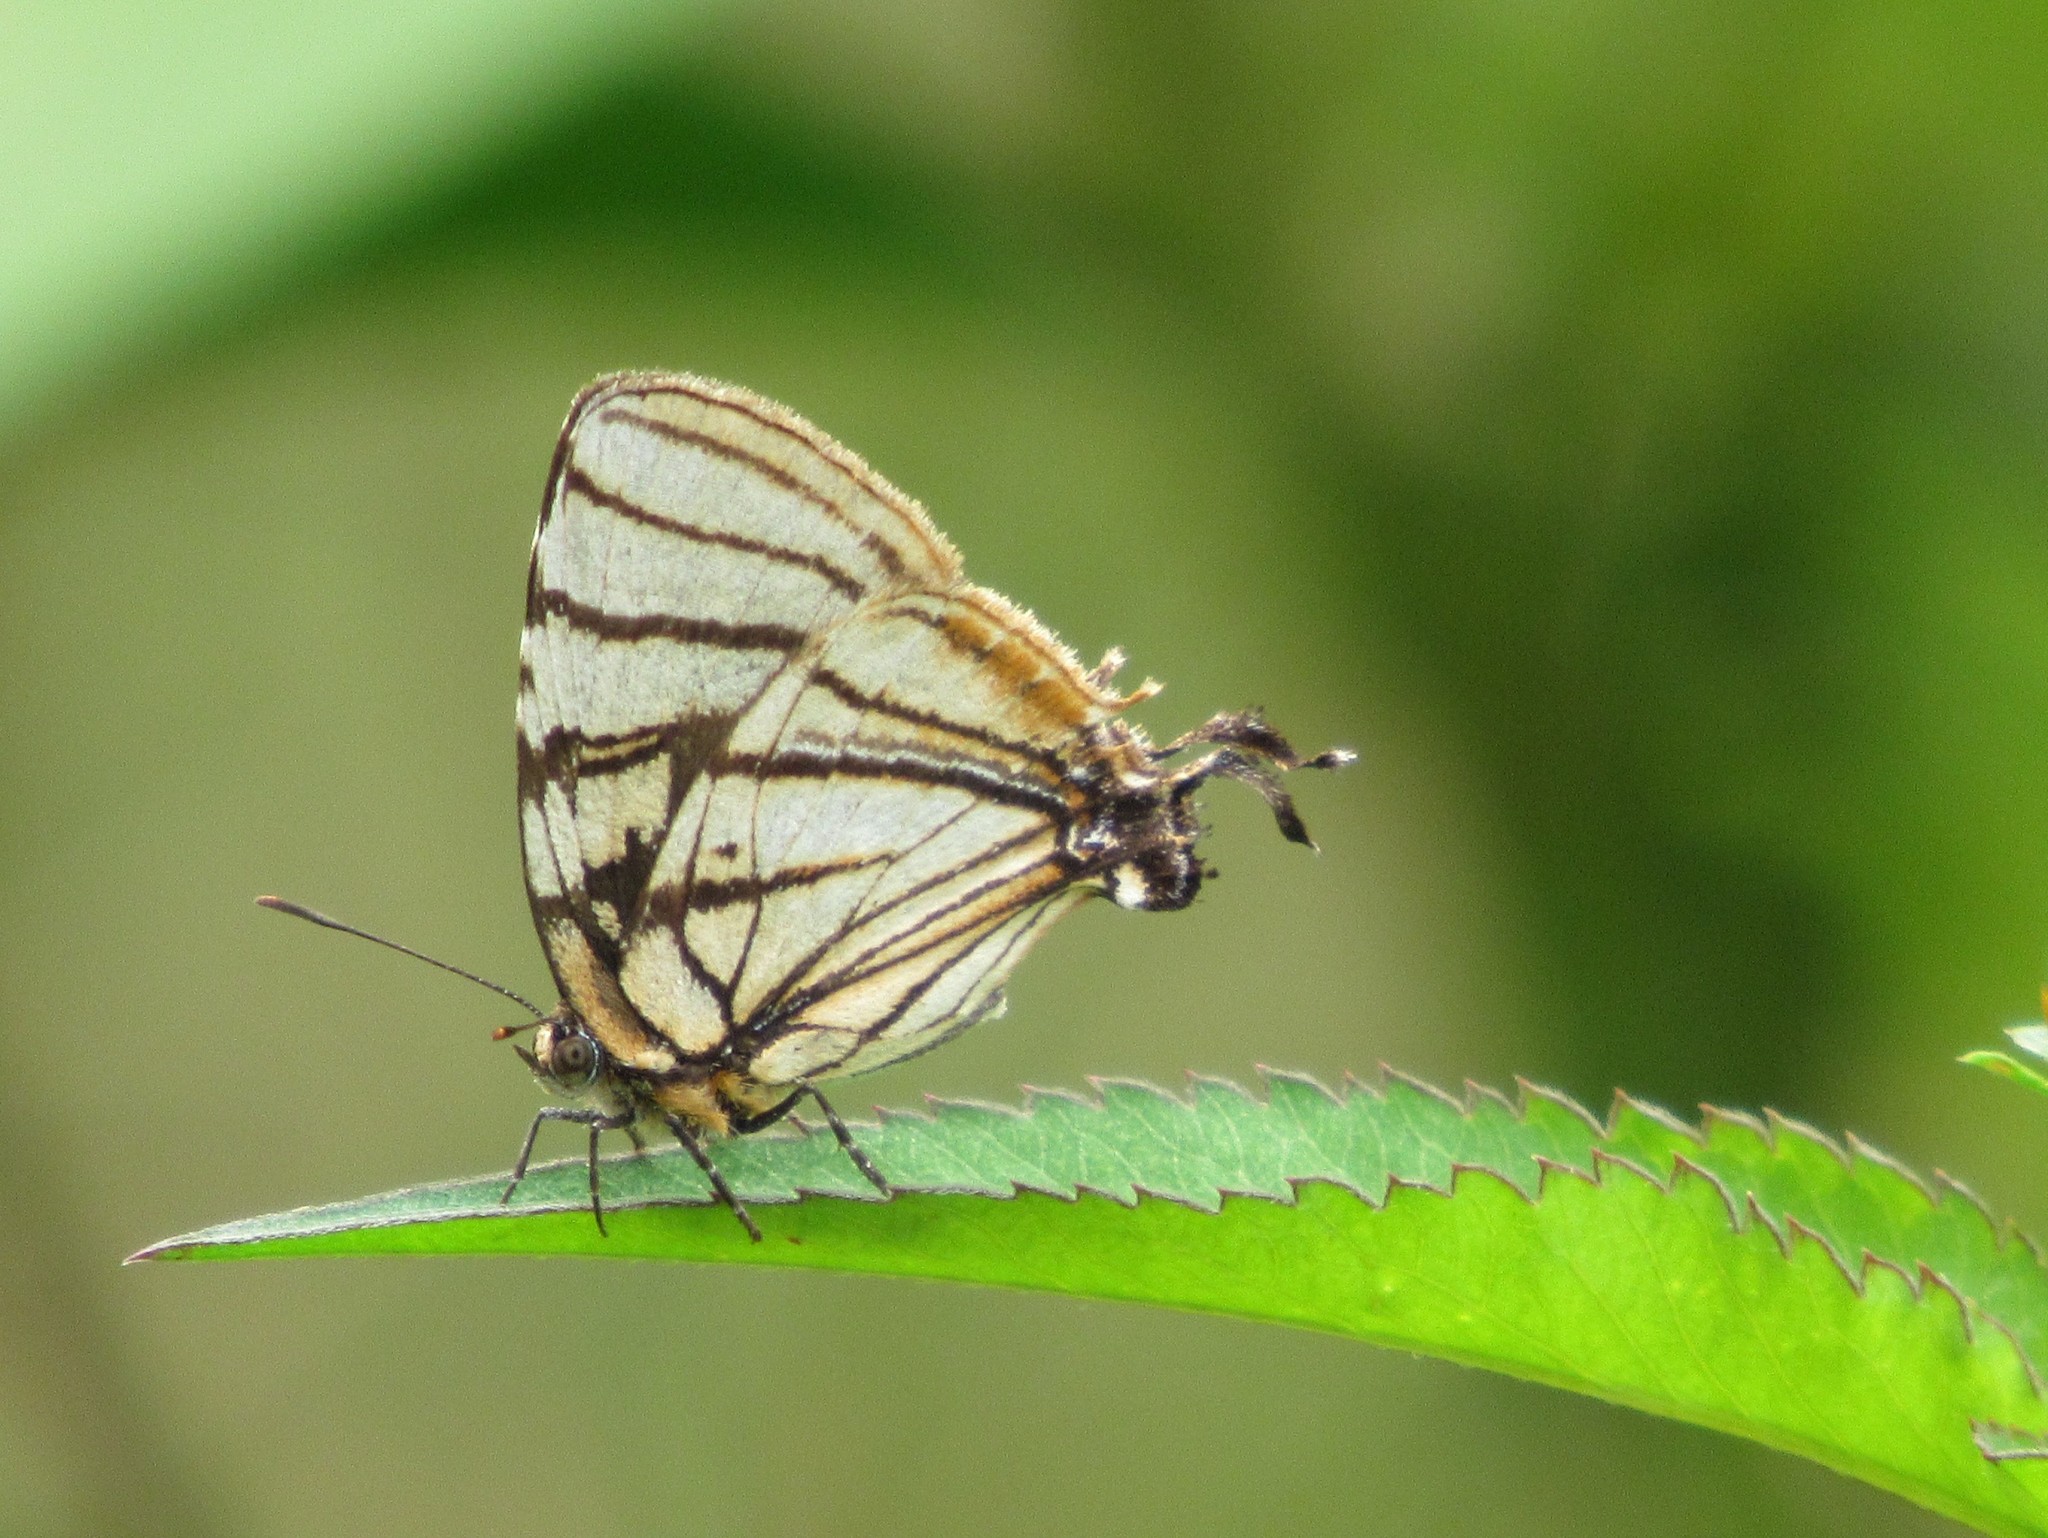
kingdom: Animalia
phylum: Arthropoda
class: Insecta
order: Lepidoptera
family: Lycaenidae
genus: Arawacus
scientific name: Arawacus melibaeus
